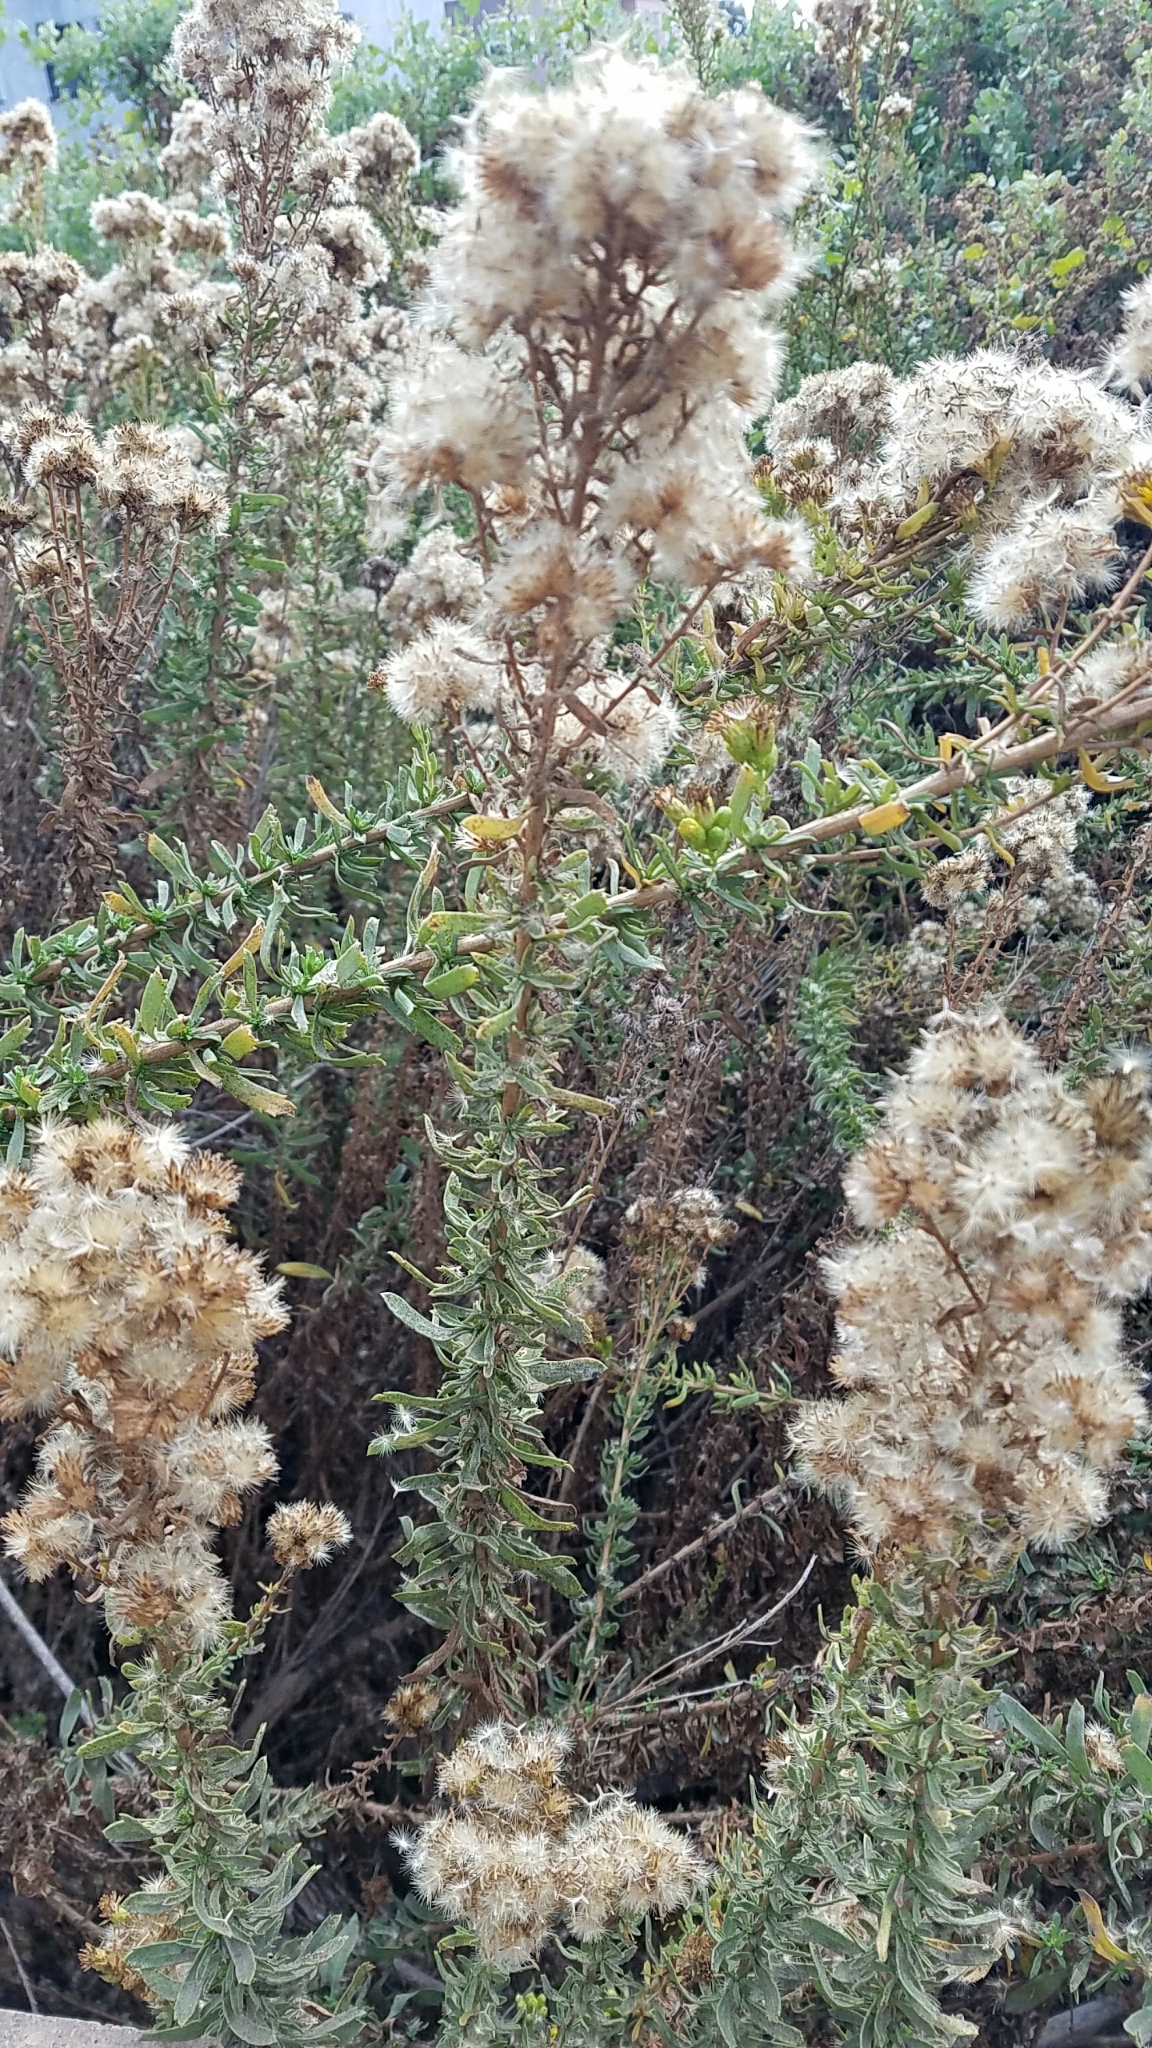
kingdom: Plantae
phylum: Tracheophyta
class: Magnoliopsida
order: Asterales
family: Asteraceae
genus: Isocoma
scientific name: Isocoma menziesii
